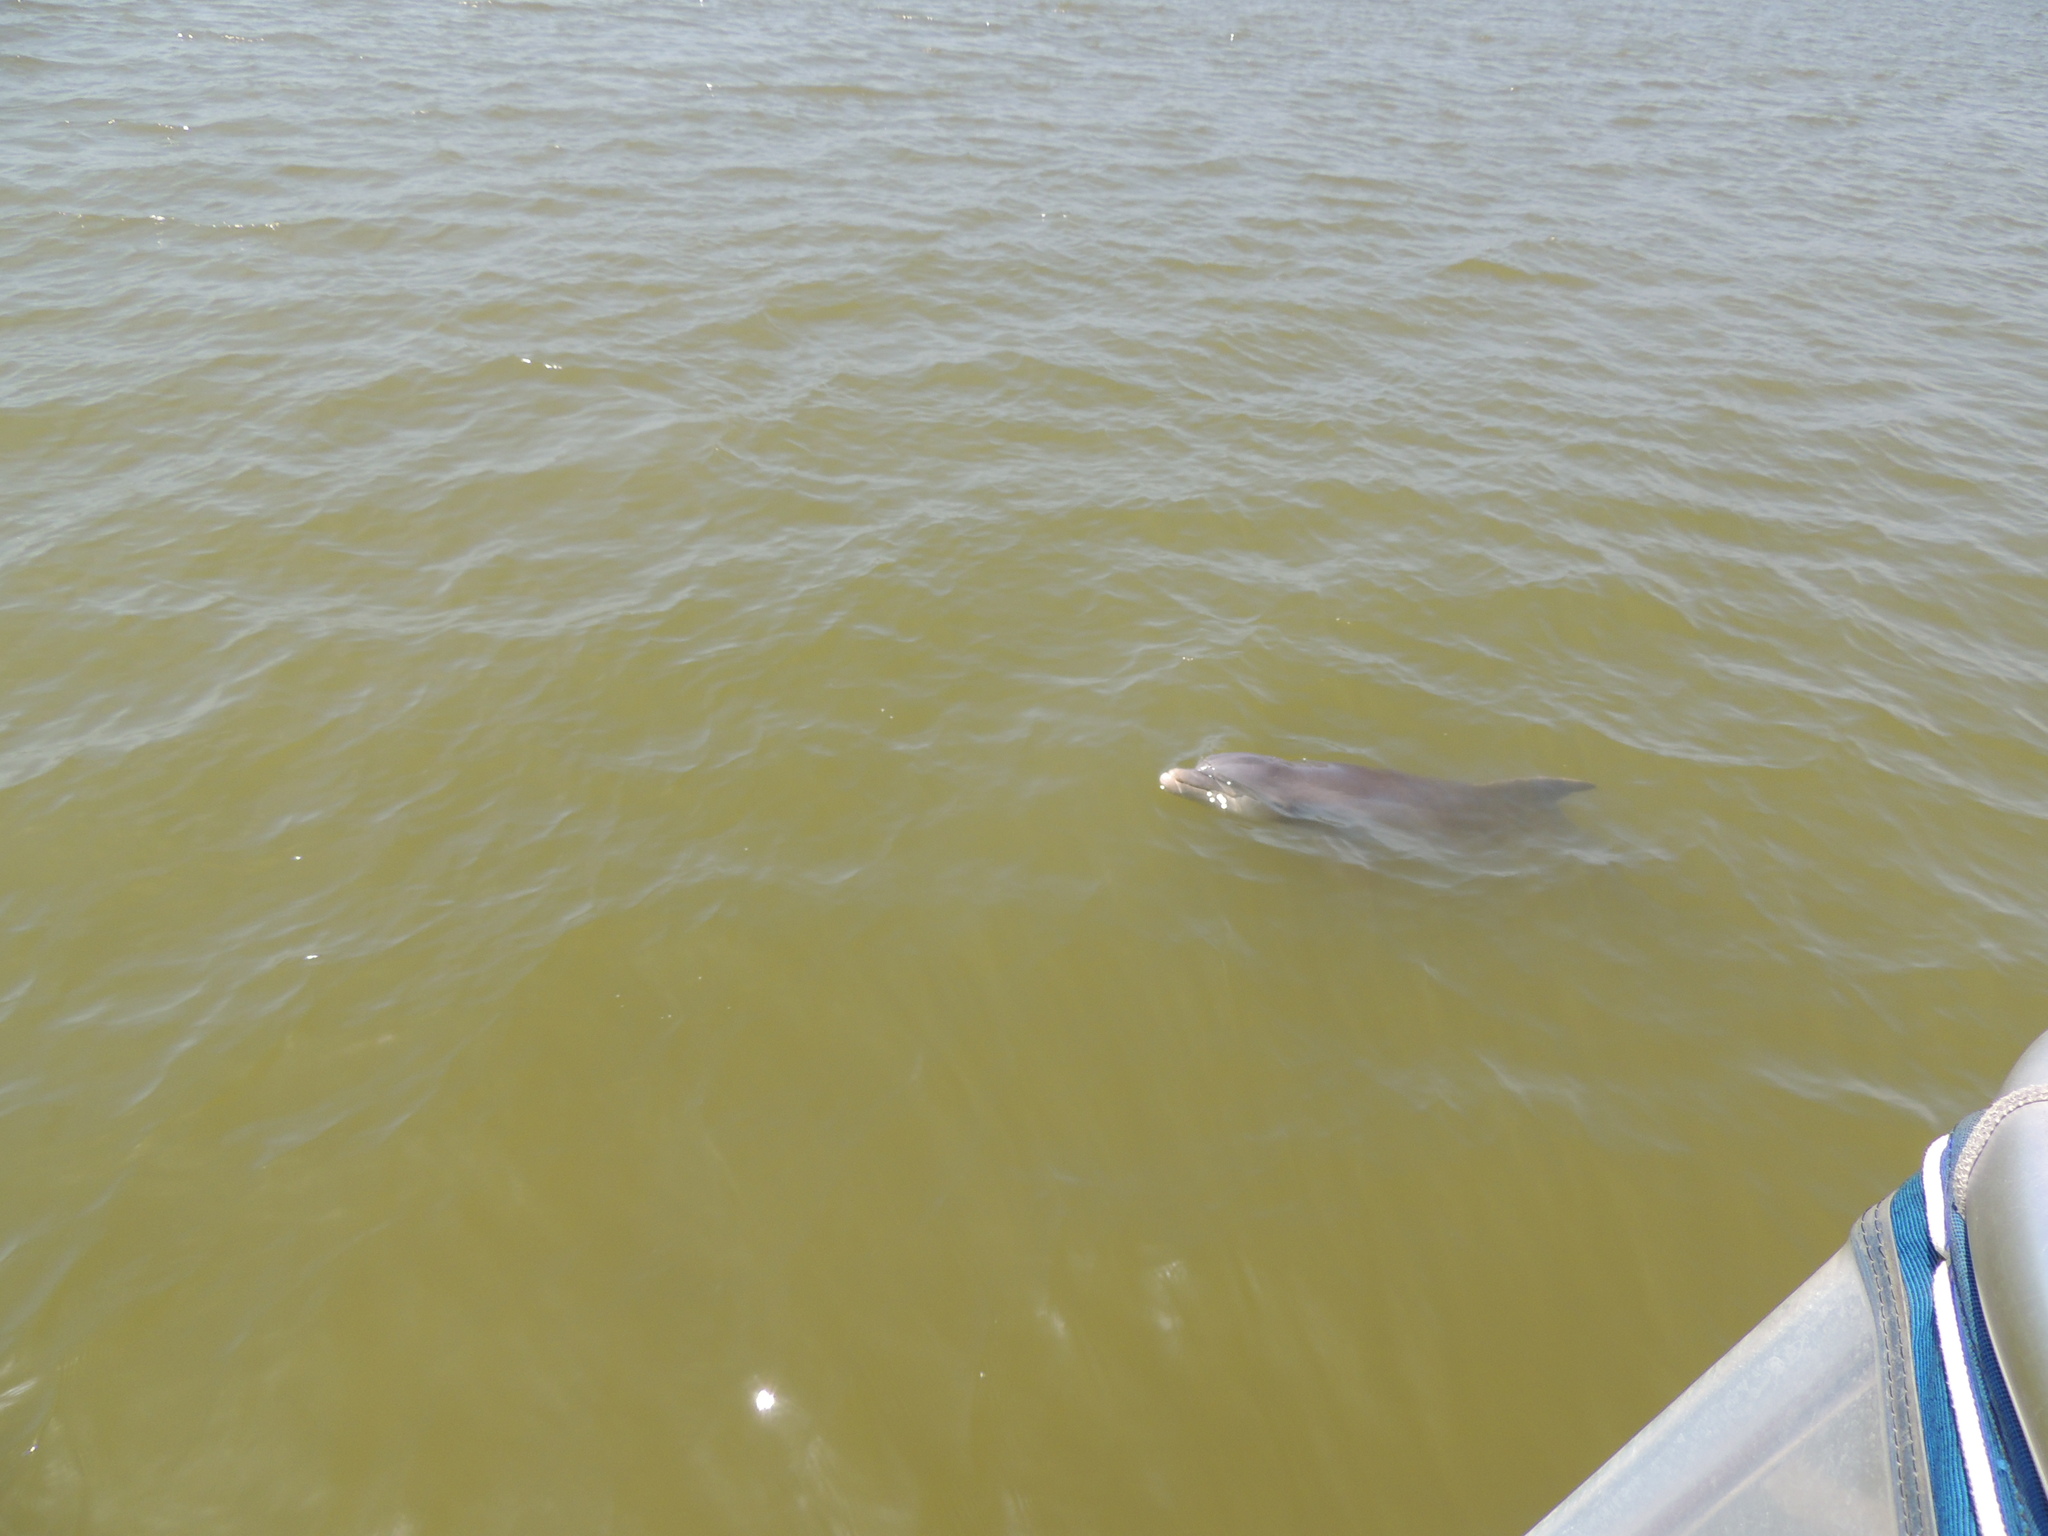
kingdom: Animalia
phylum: Chordata
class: Mammalia
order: Cetacea
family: Delphinidae
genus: Tursiops
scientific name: Tursiops truncatus
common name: Bottlenose dolphin
